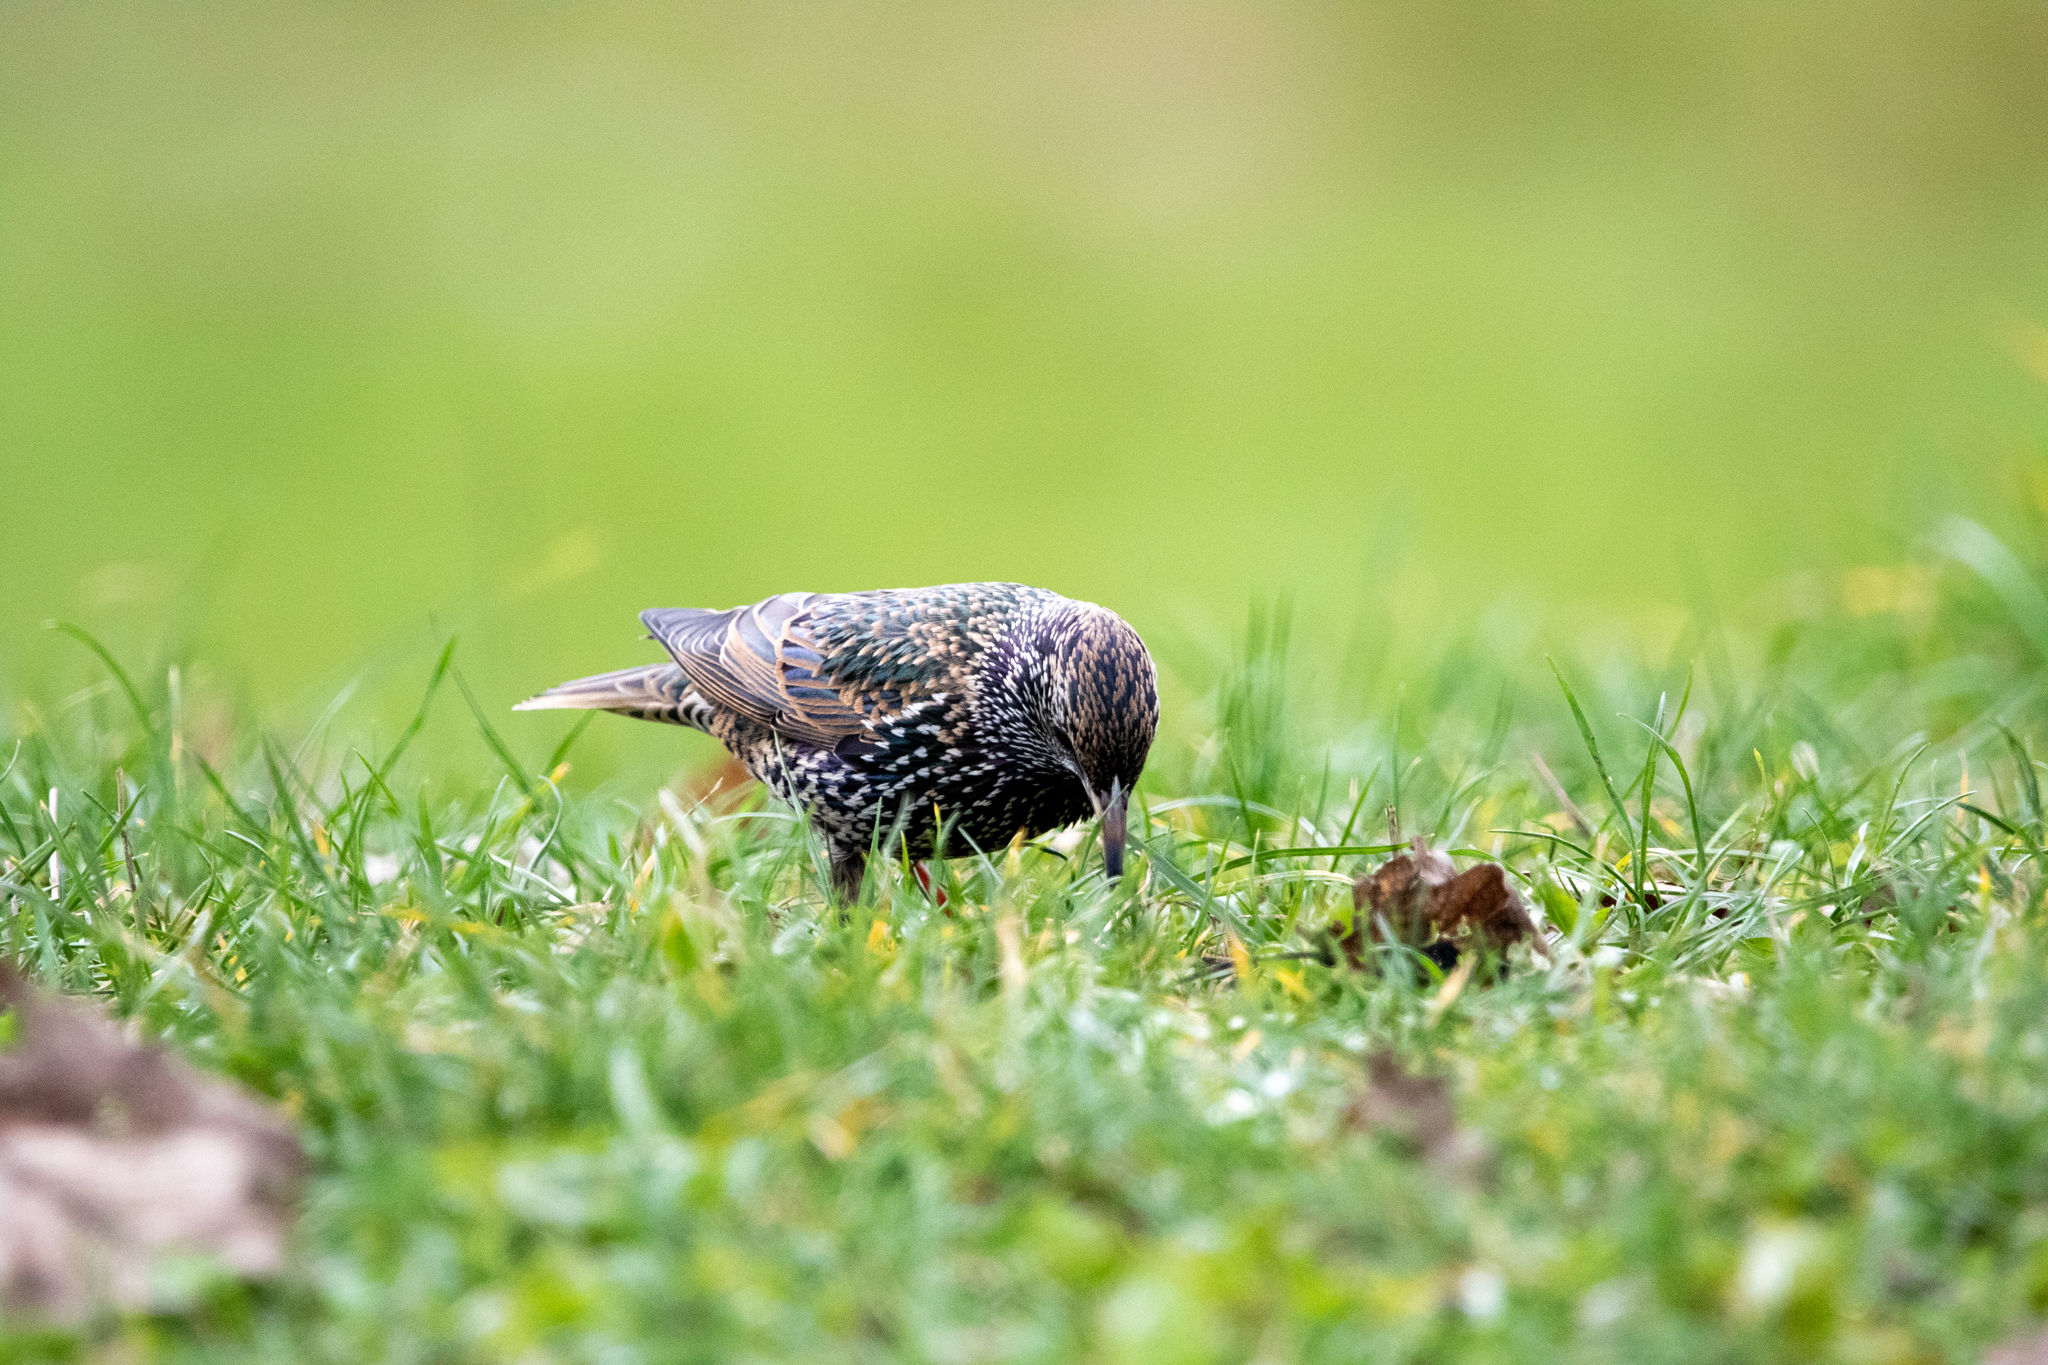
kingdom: Animalia
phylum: Chordata
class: Aves
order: Passeriformes
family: Sturnidae
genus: Sturnus
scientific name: Sturnus vulgaris
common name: Common starling
